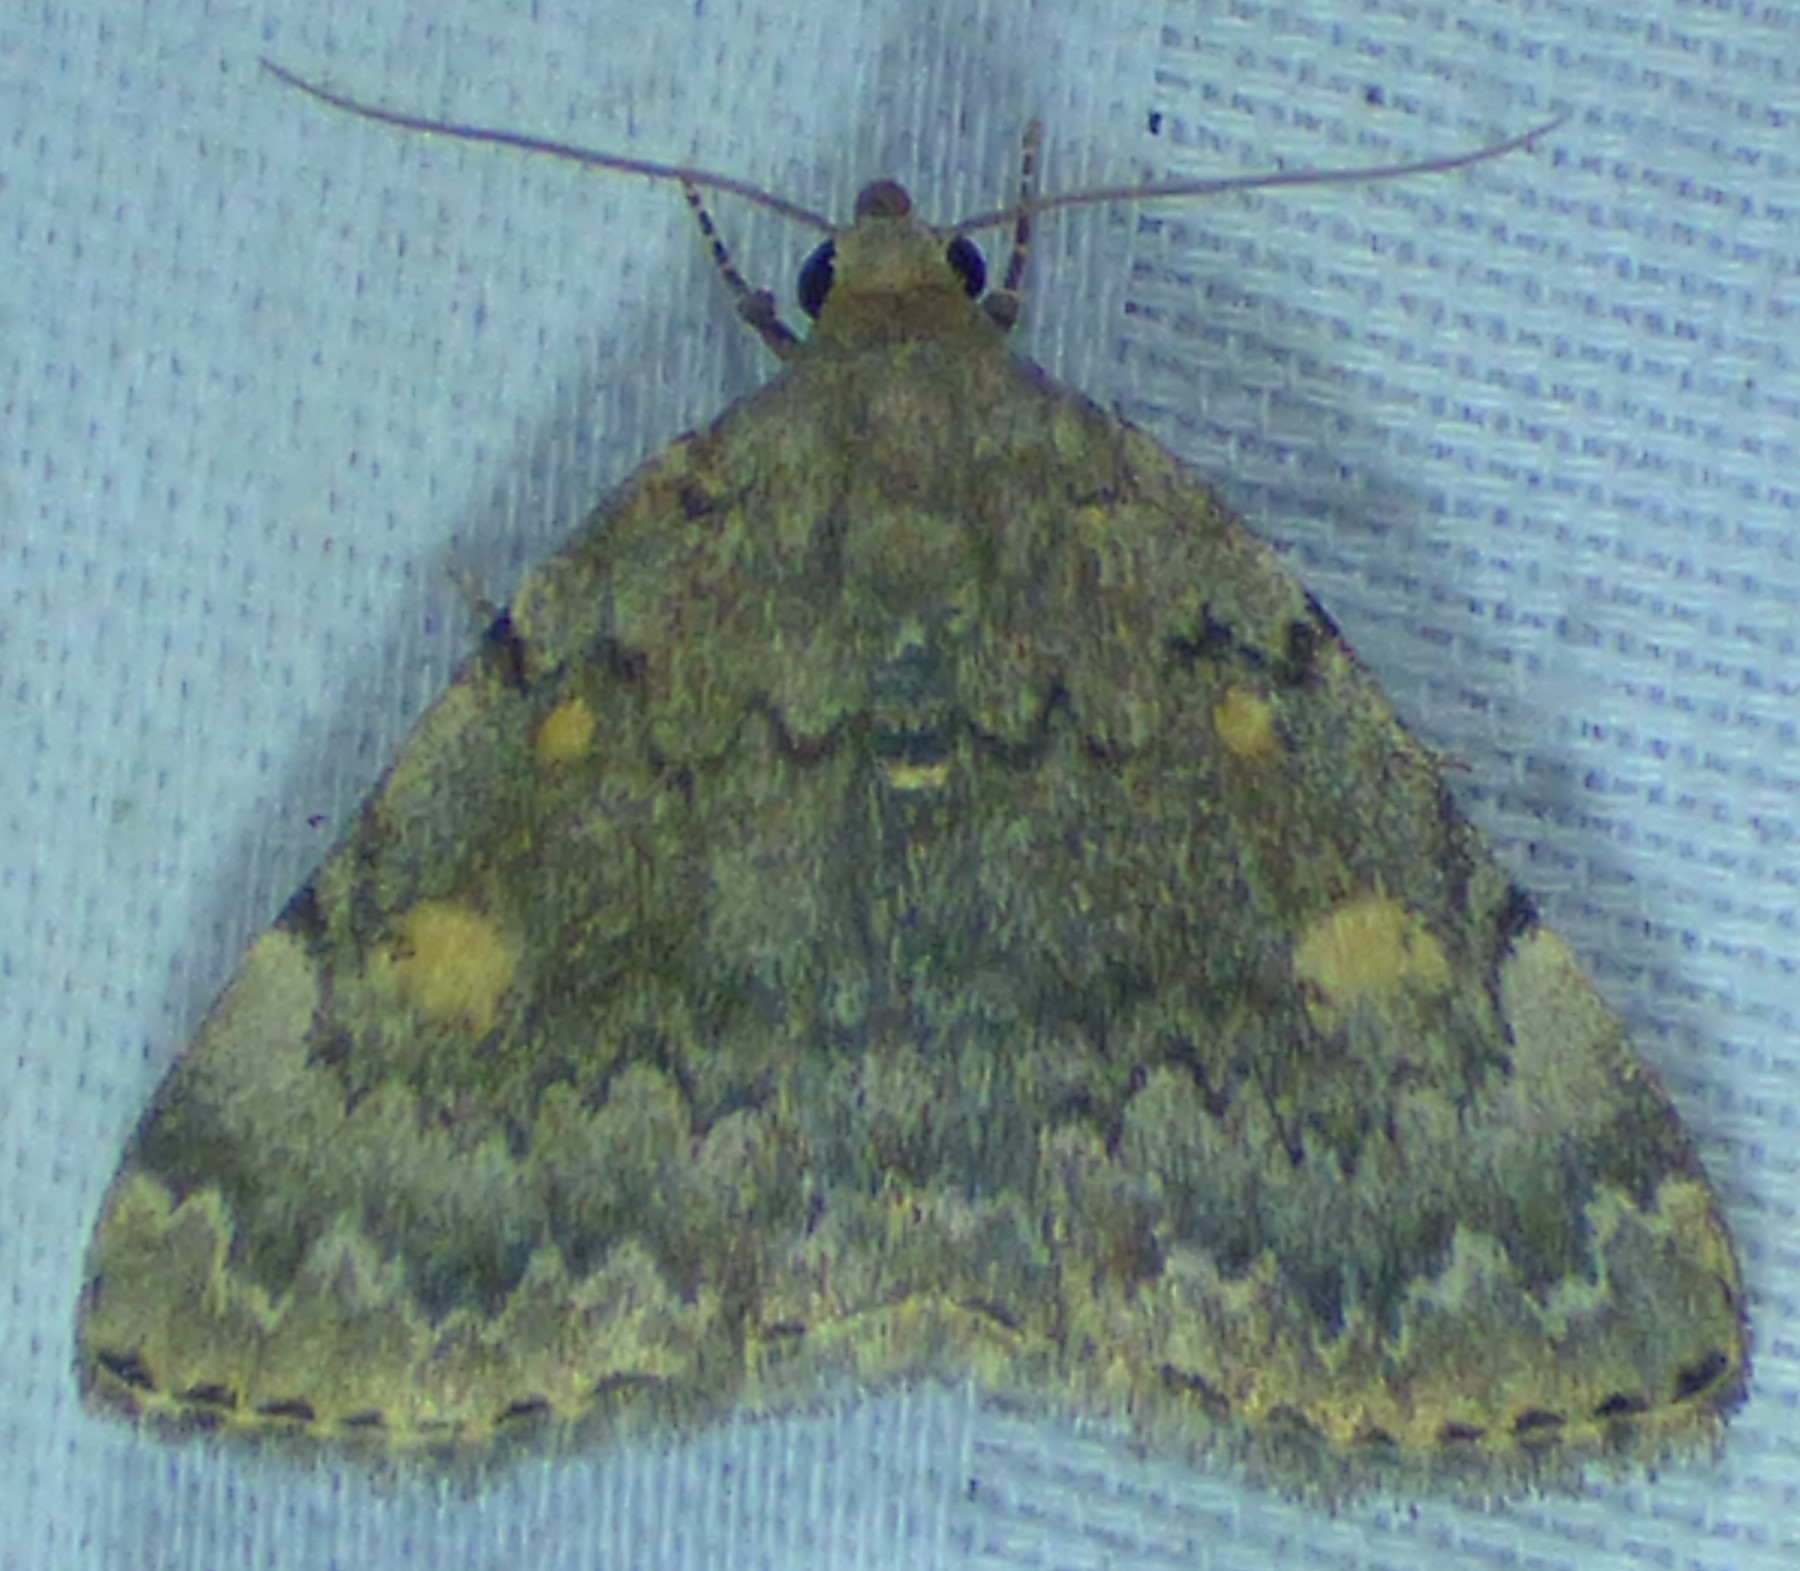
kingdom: Animalia
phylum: Arthropoda
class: Insecta
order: Lepidoptera
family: Erebidae
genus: Idia
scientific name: Idia aemula
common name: Common idia moth
